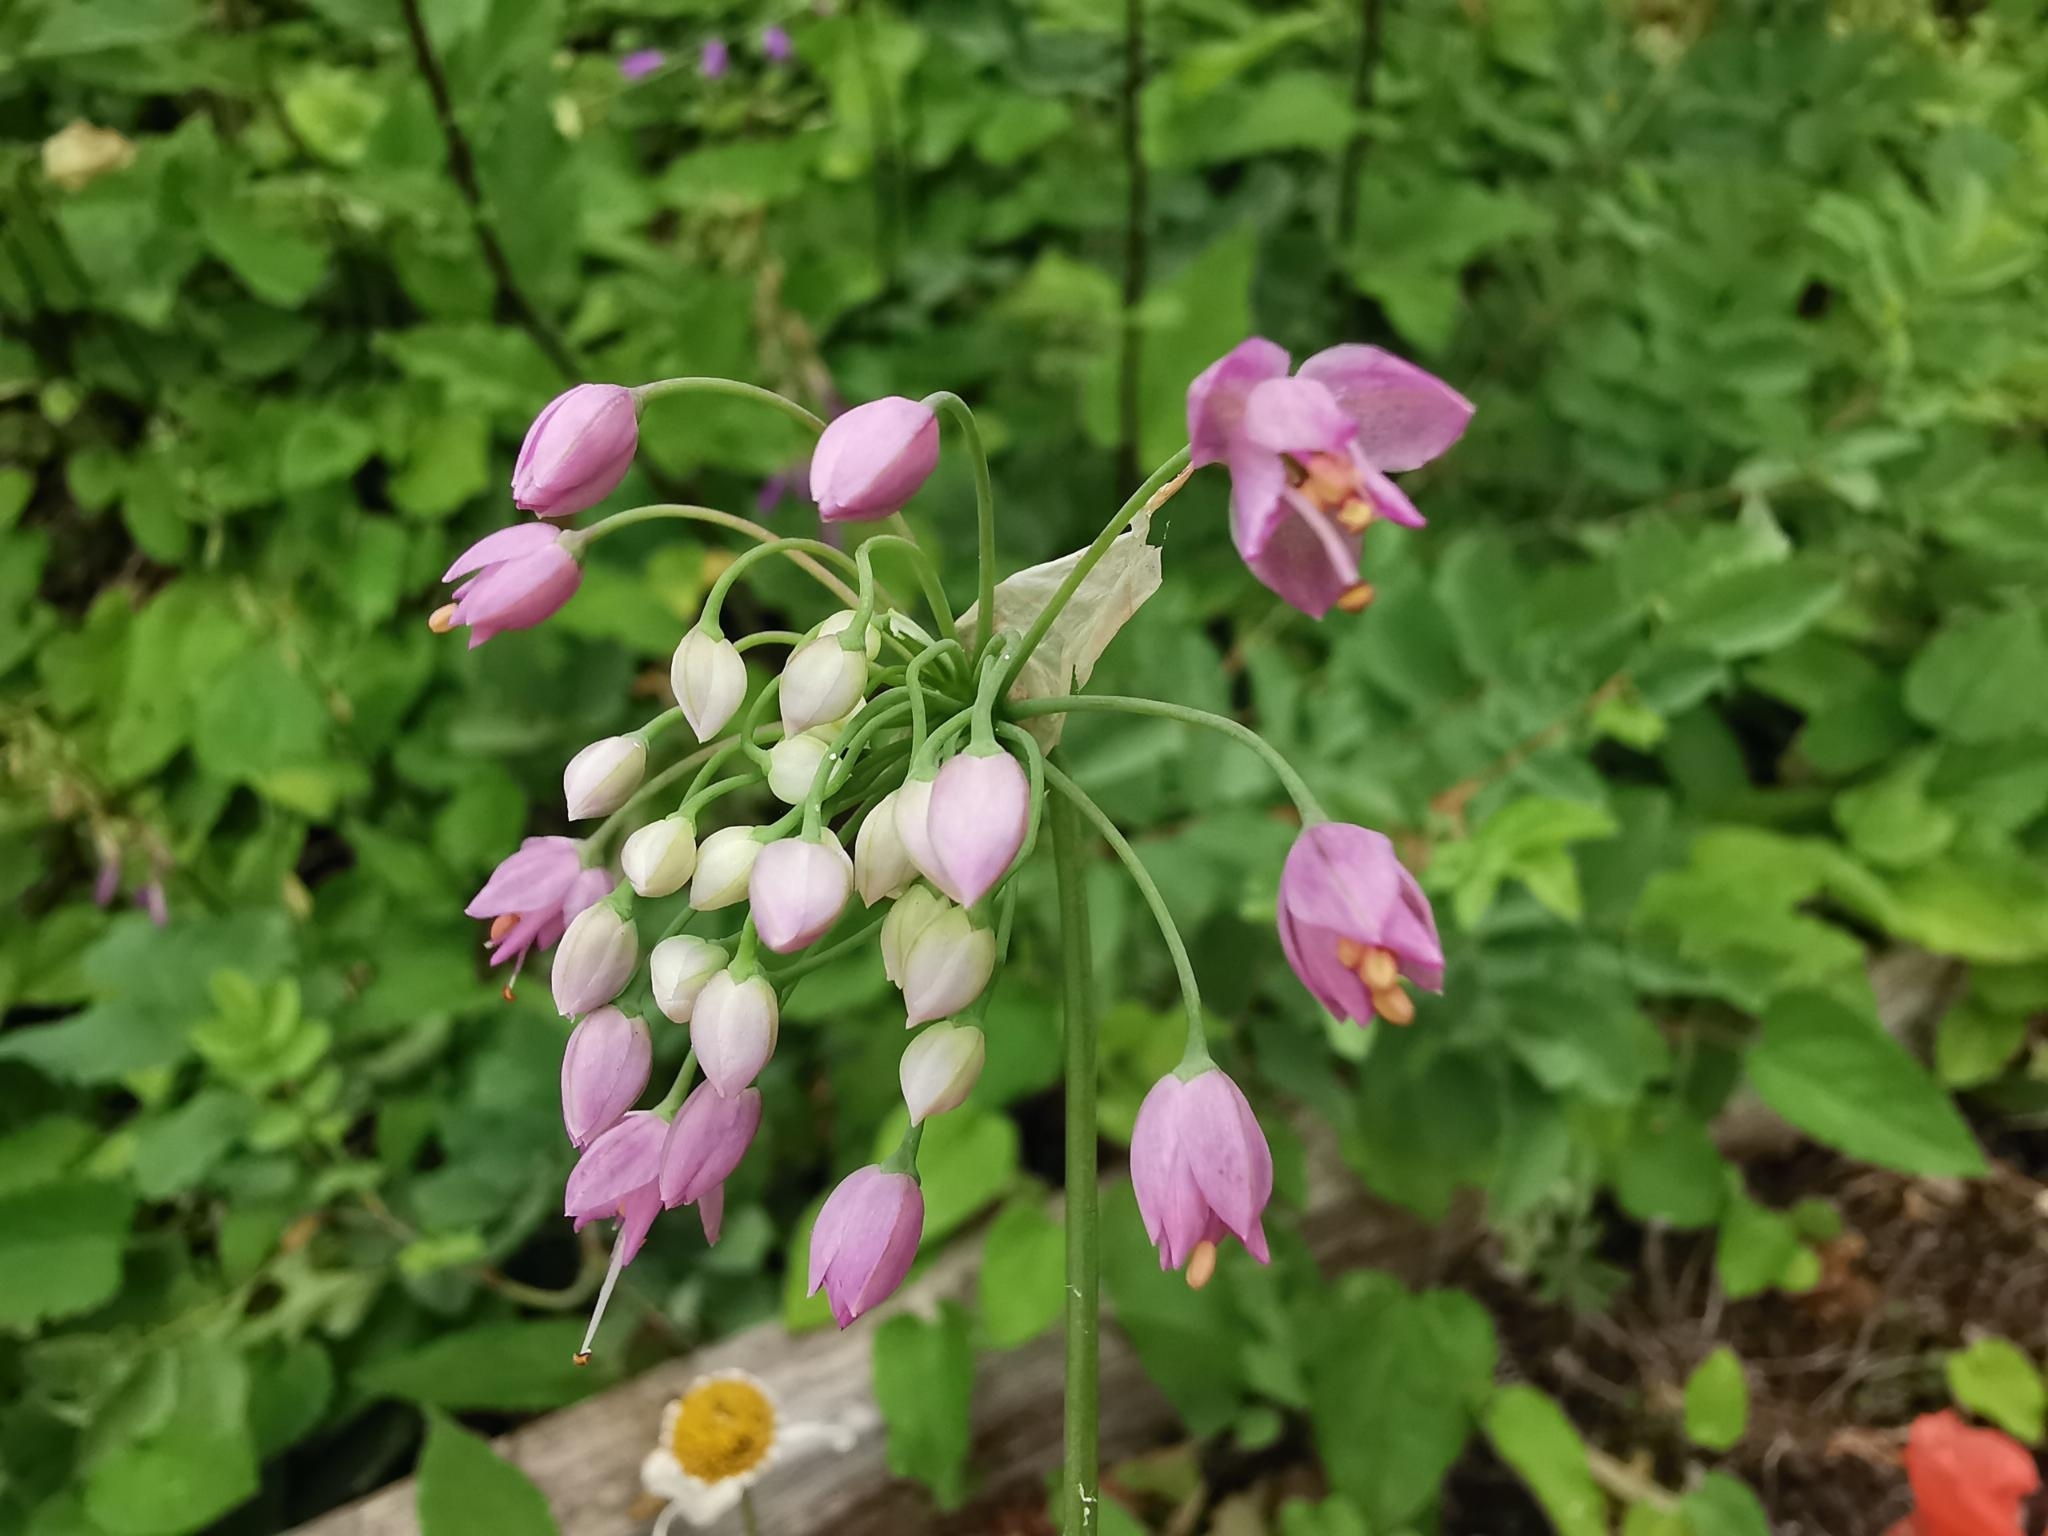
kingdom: Plantae
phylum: Tracheophyta
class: Liliopsida
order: Asparagales
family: Amaryllidaceae
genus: Allium
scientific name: Allium cernuum
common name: Nodding onion
